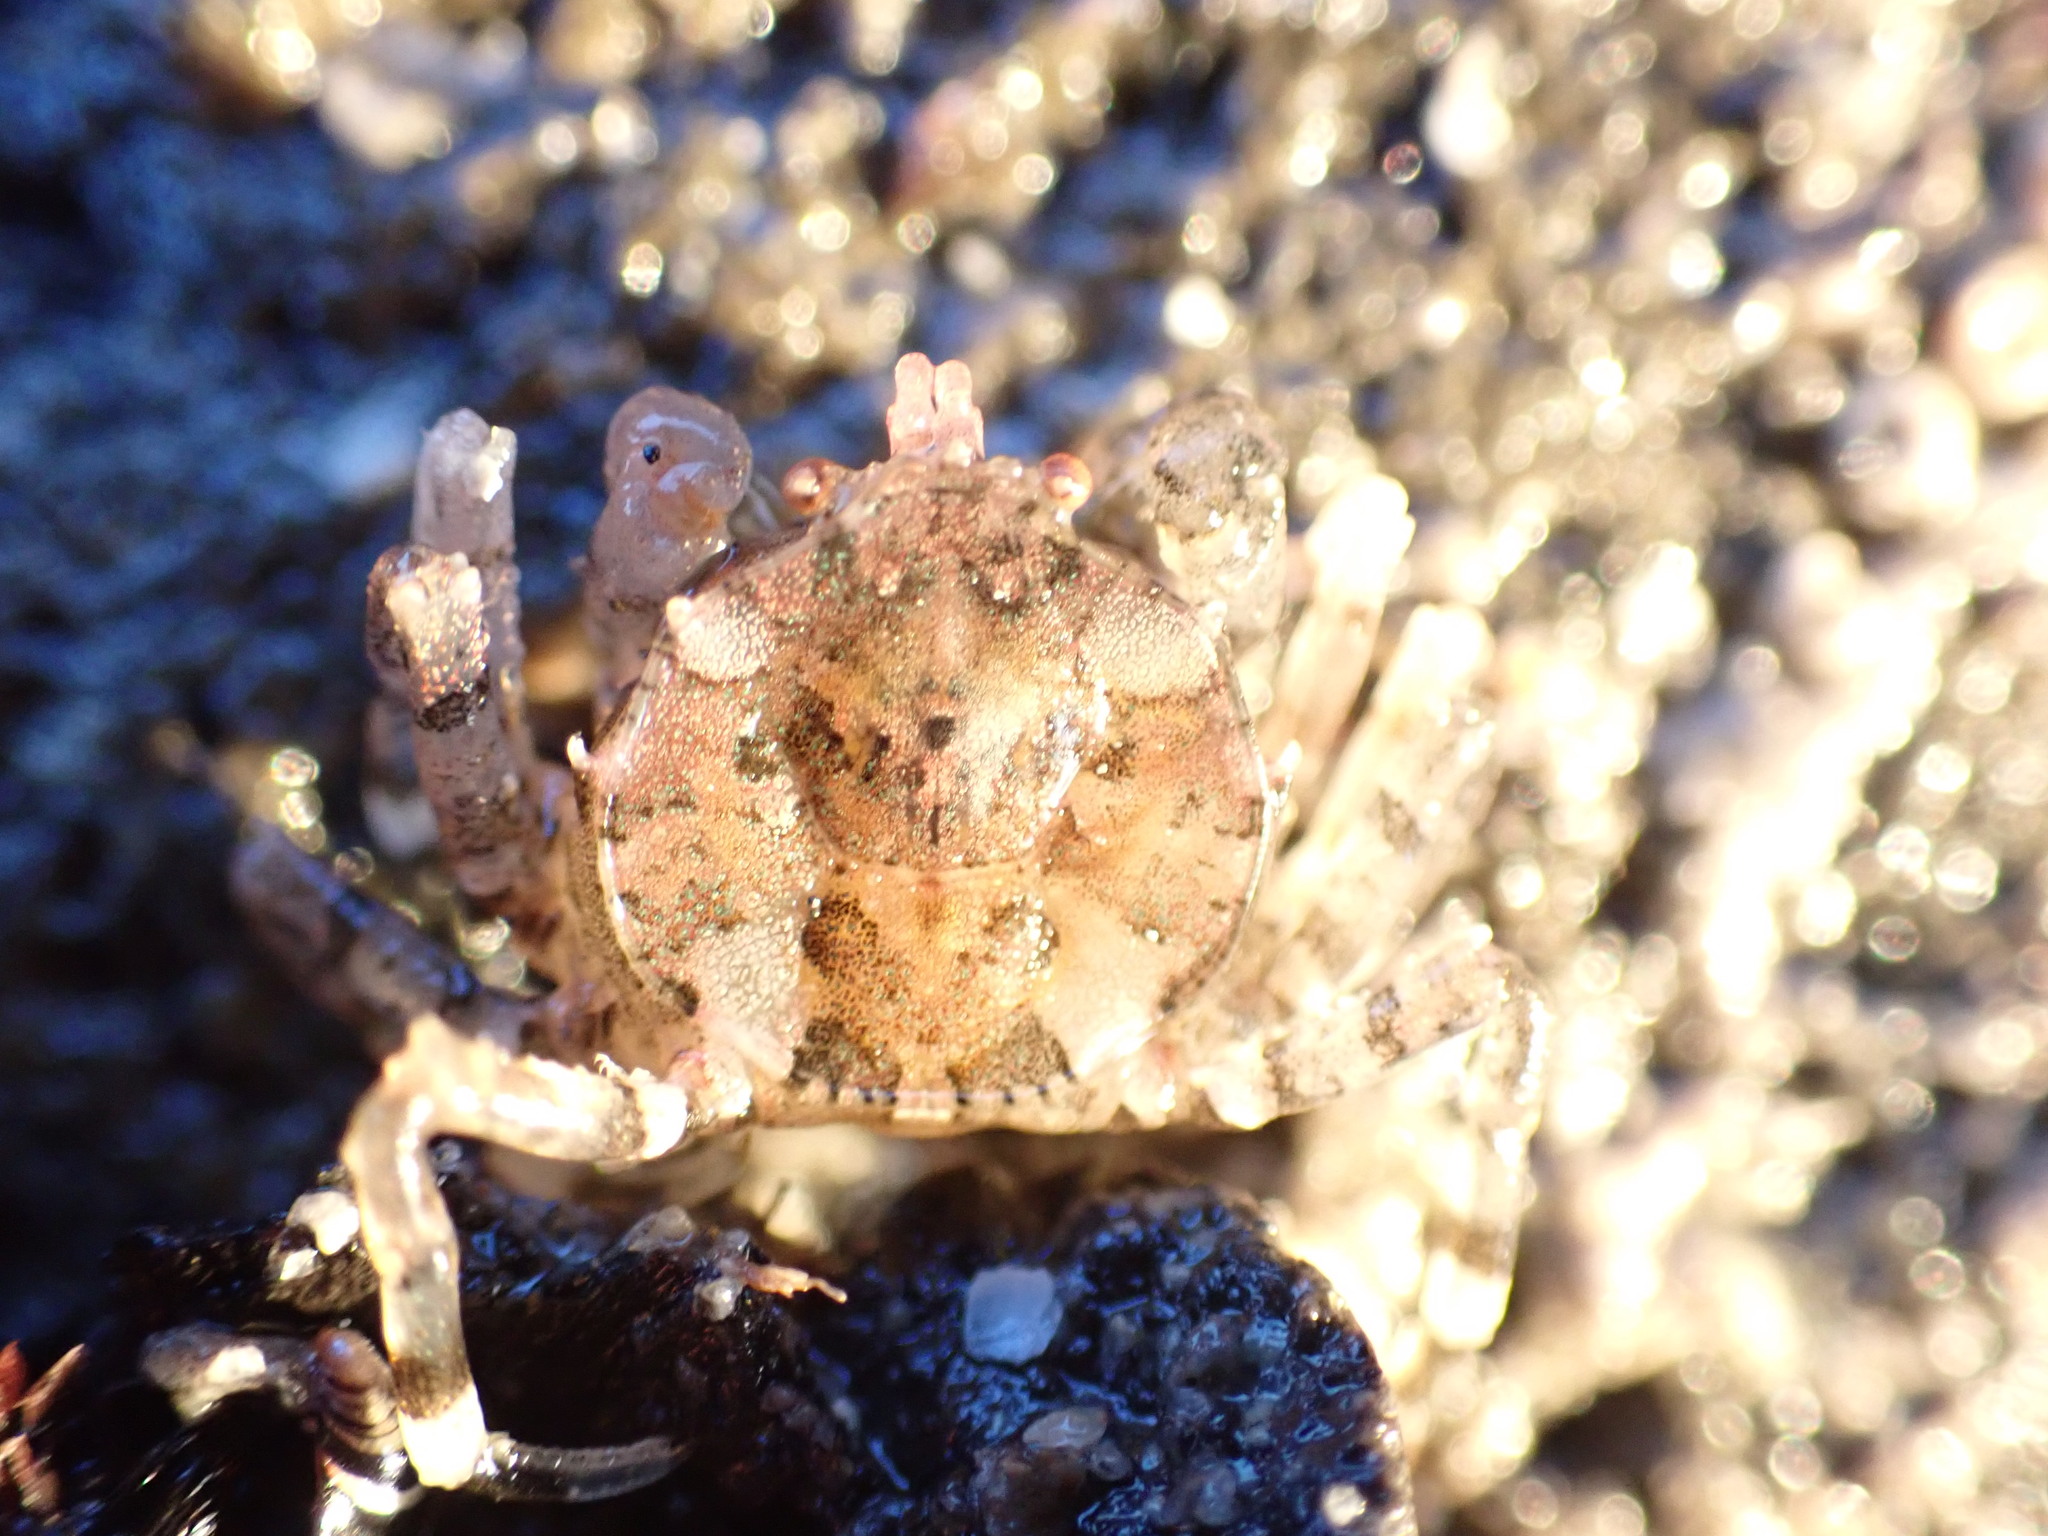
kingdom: Animalia
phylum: Arthropoda
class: Malacostraca
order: Decapoda
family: Hymenosomatidae
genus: Halicarcinus
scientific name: Halicarcinus cookii
